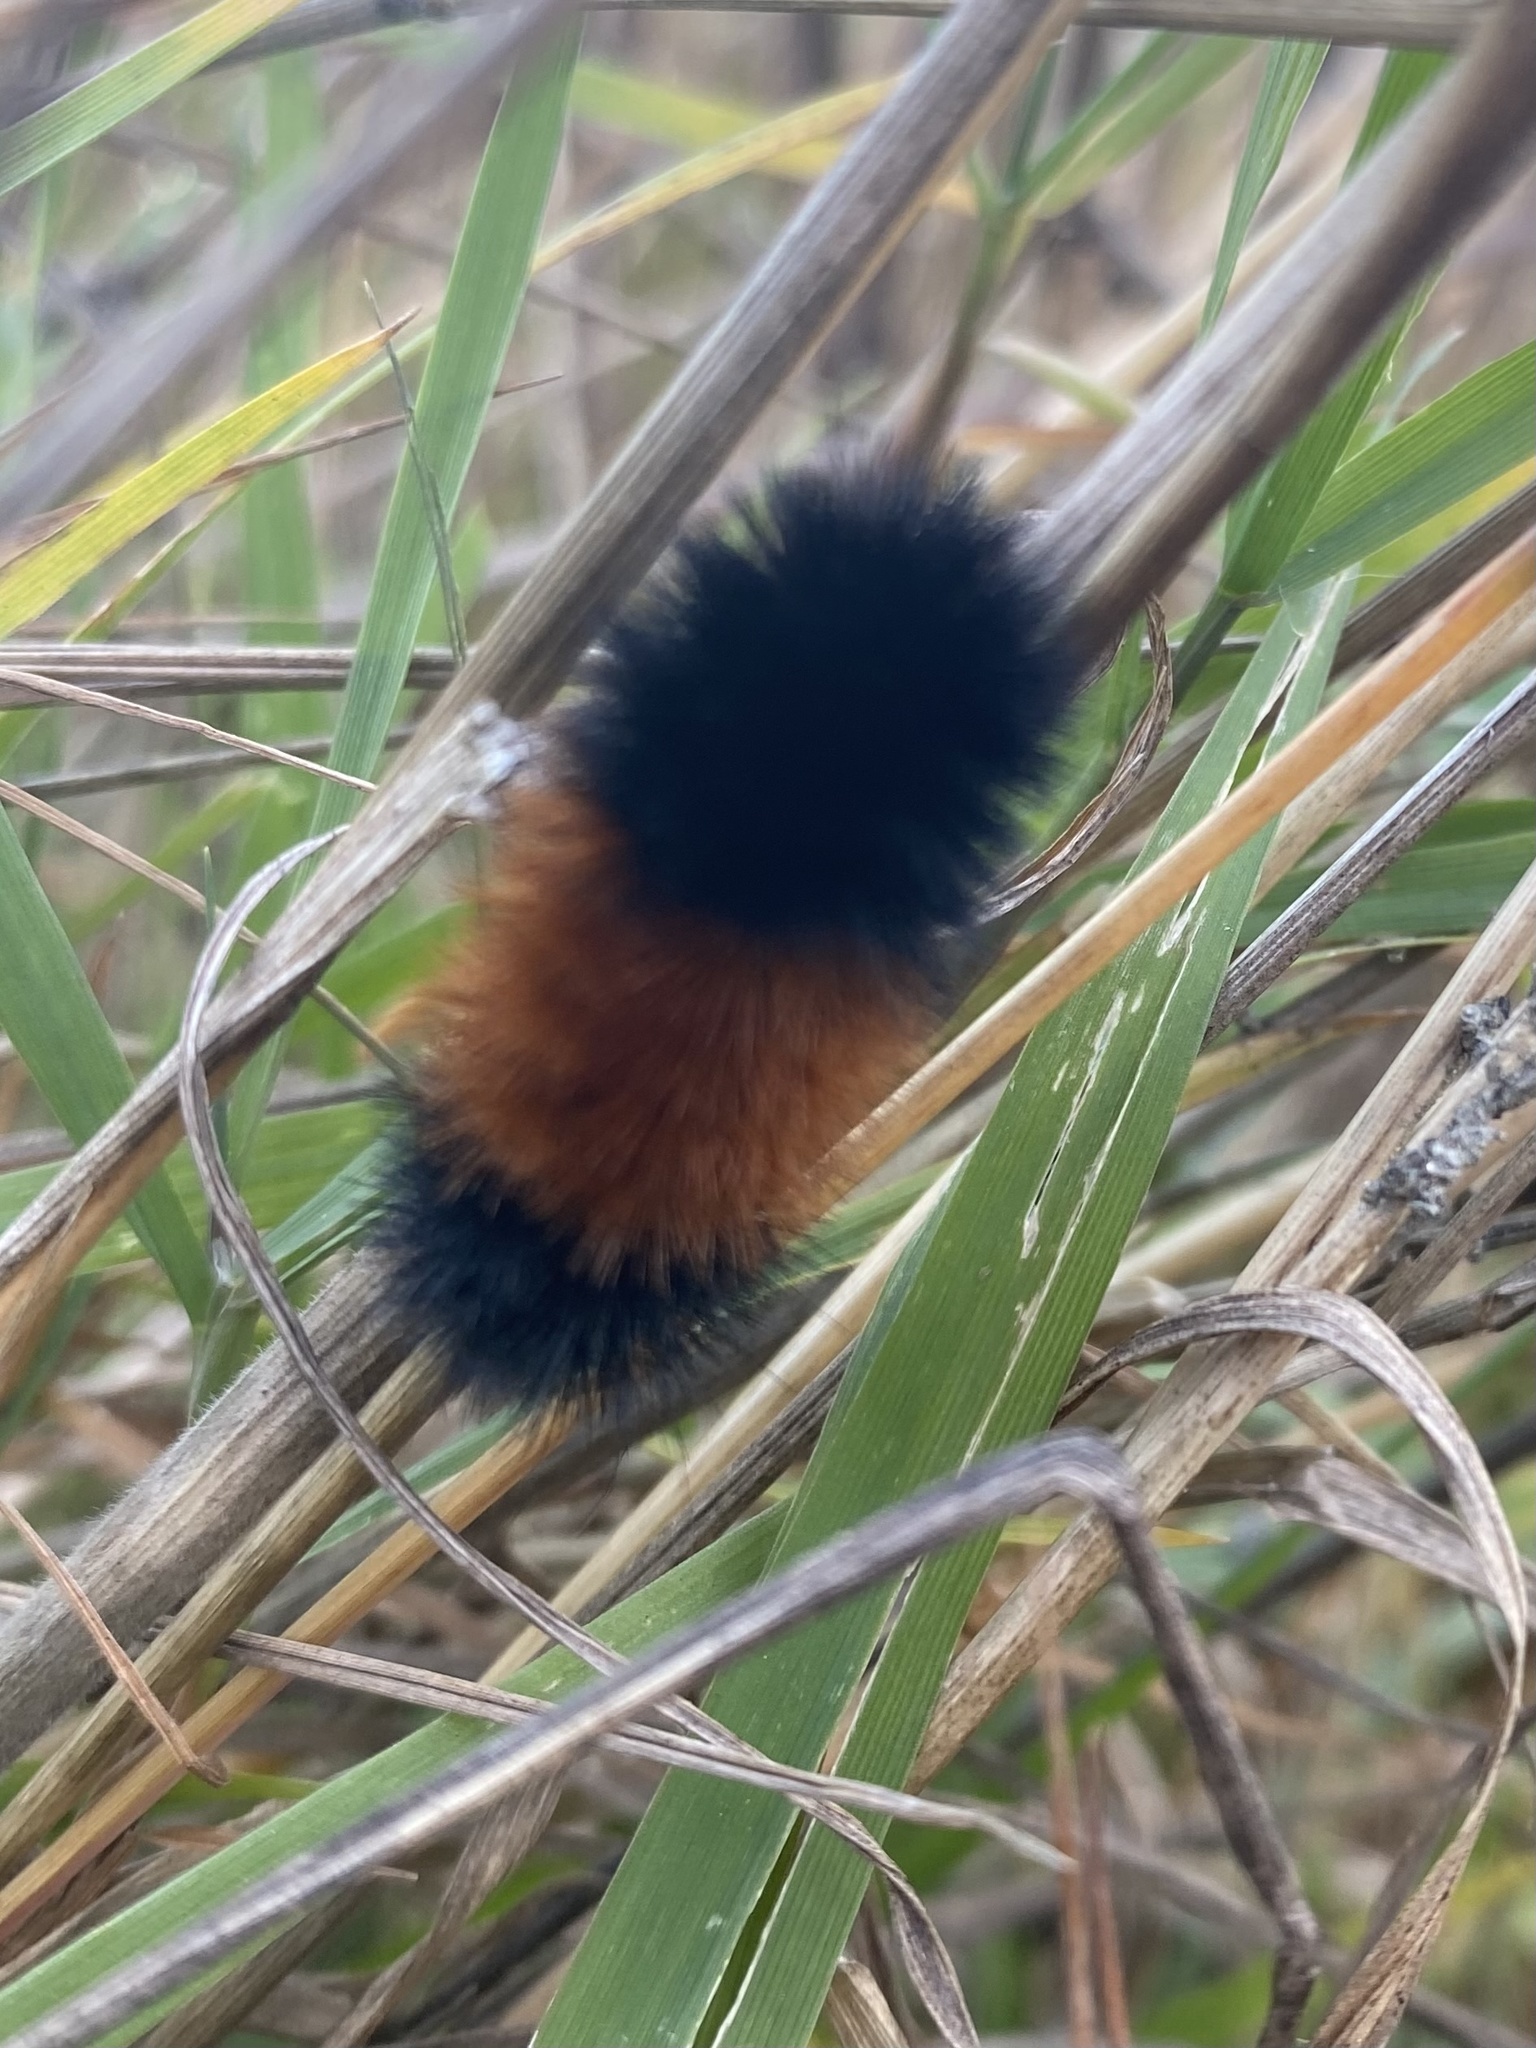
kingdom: Animalia
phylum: Arthropoda
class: Insecta
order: Lepidoptera
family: Erebidae
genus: Pyrrharctia
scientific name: Pyrrharctia isabella
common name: Isabella tiger moth
